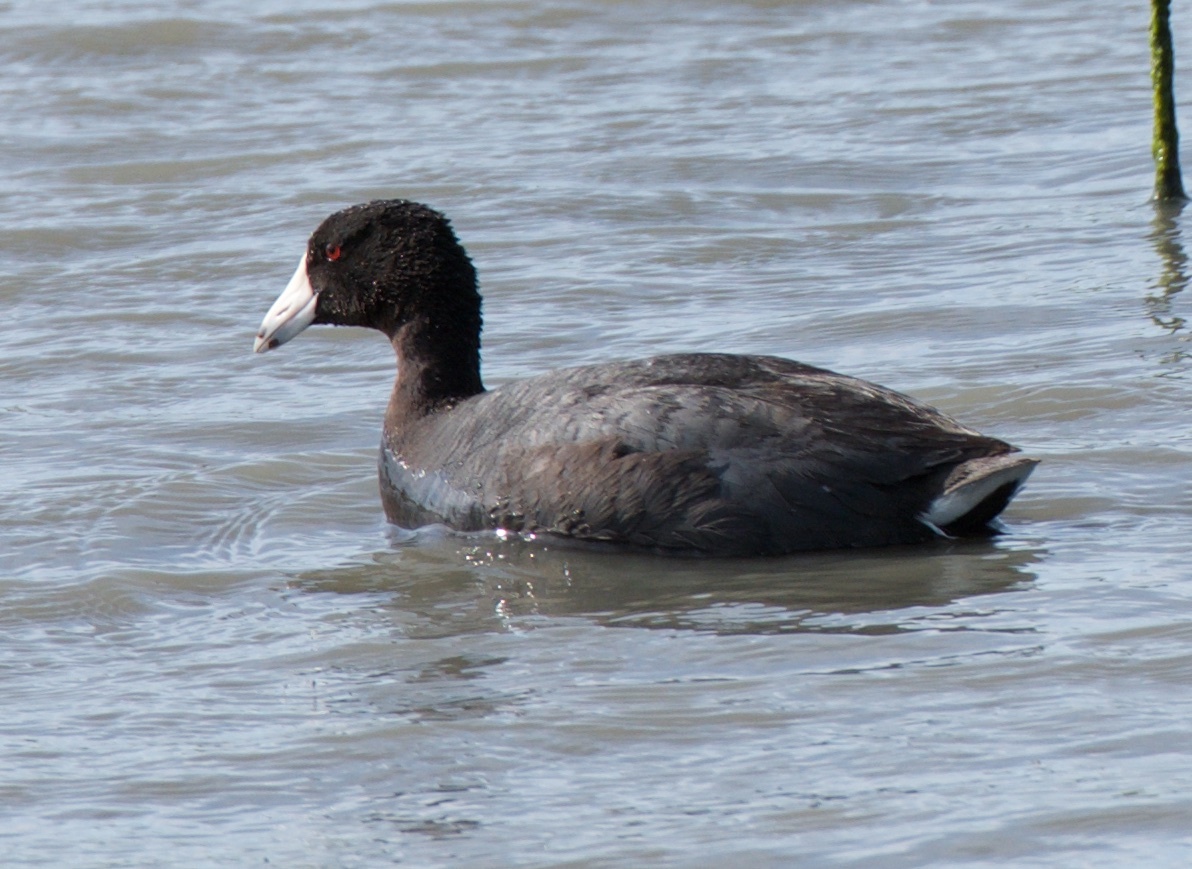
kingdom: Animalia
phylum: Chordata
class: Aves
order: Gruiformes
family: Rallidae
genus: Fulica
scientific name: Fulica americana
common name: American coot
